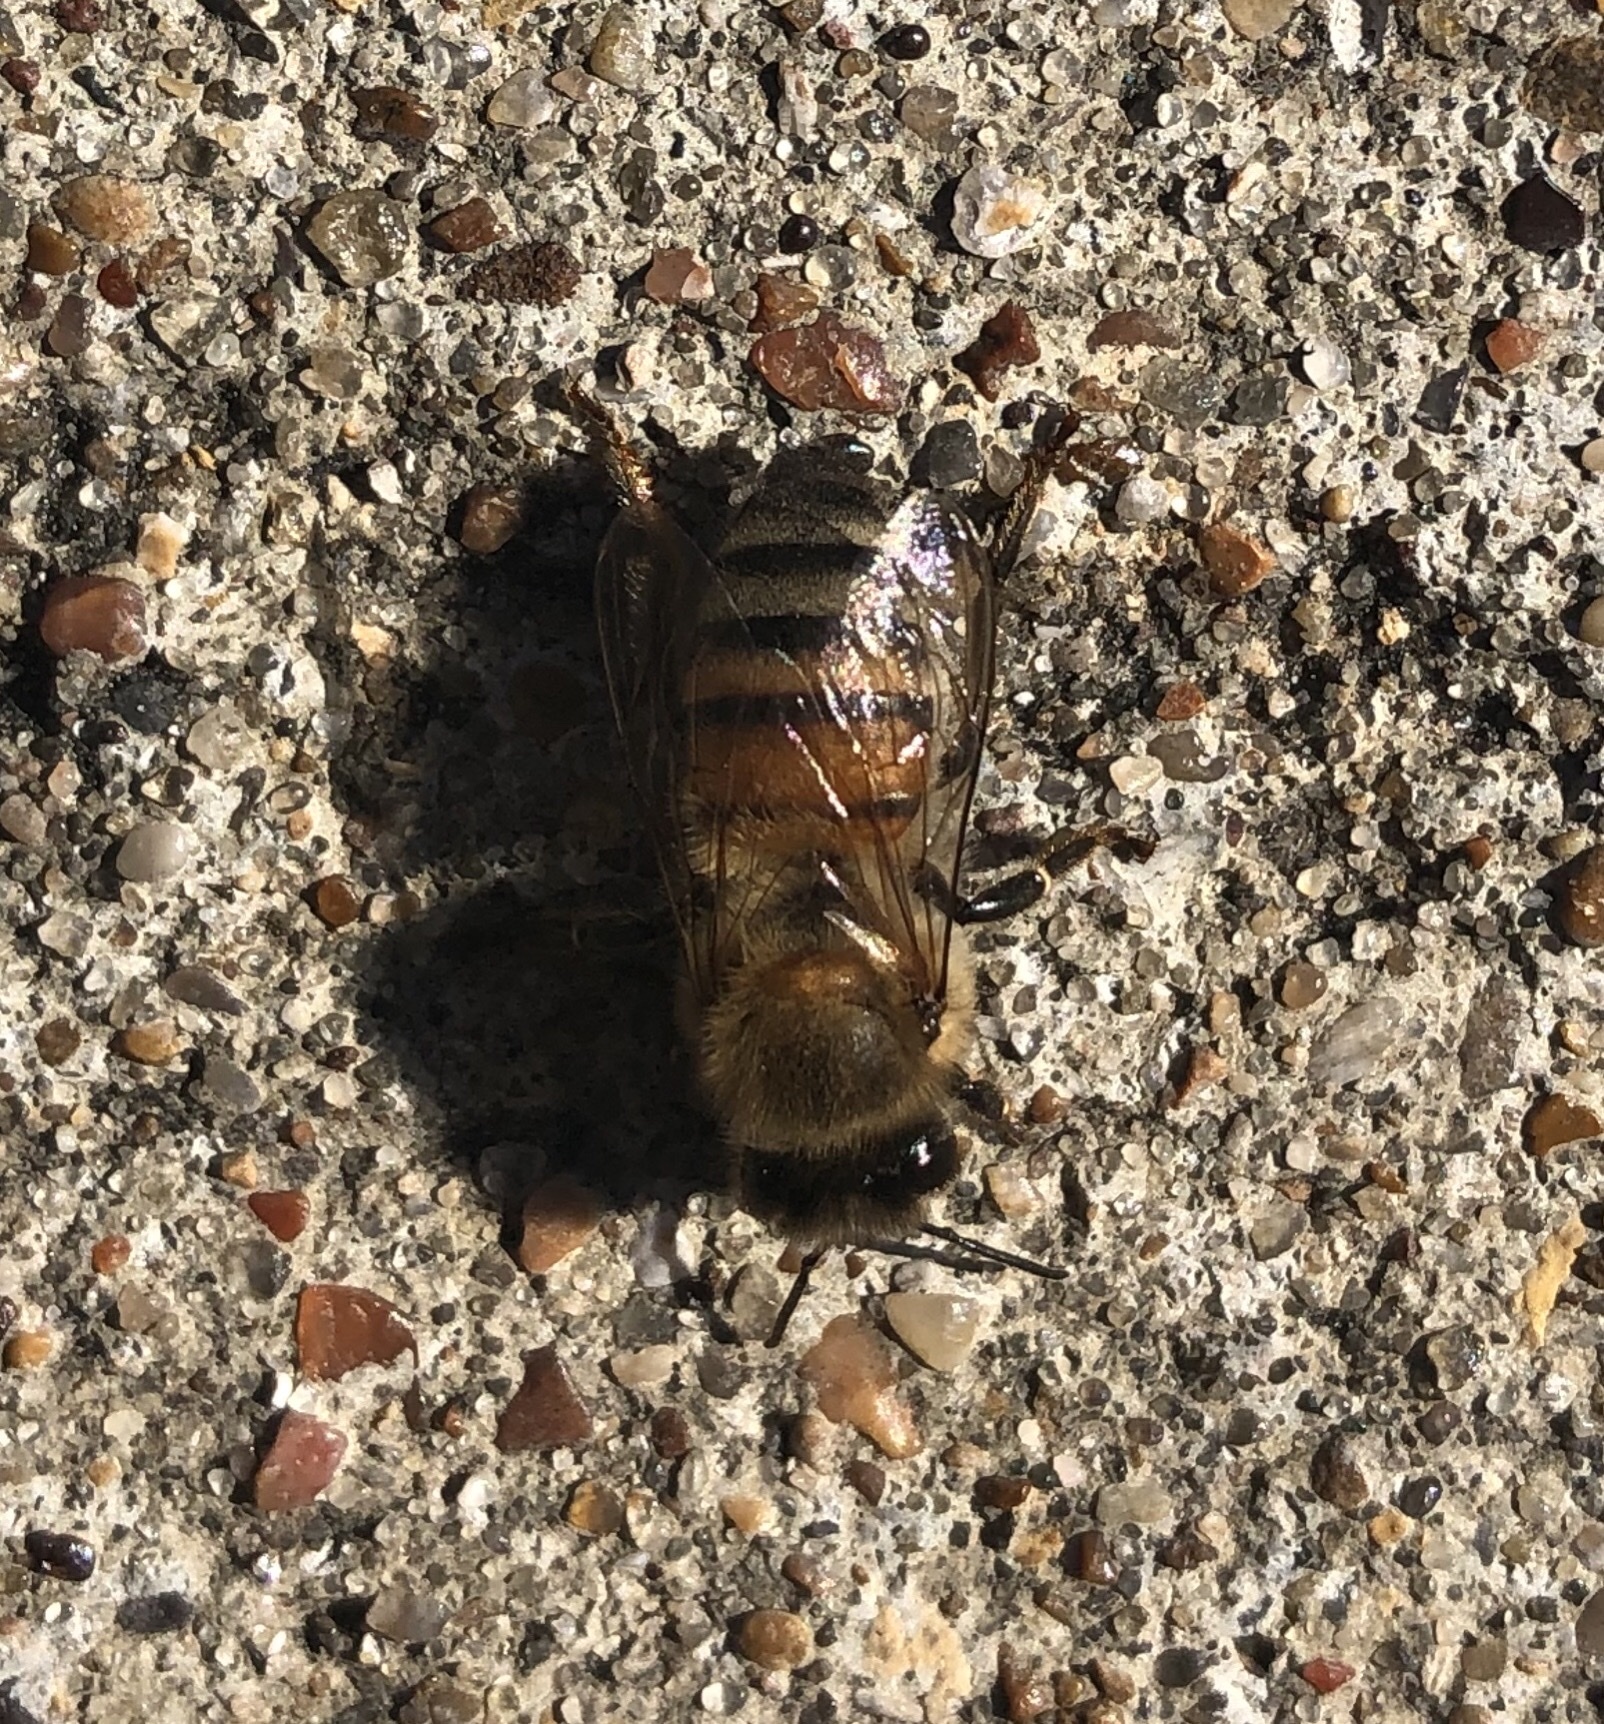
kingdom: Animalia
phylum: Arthropoda
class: Insecta
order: Hymenoptera
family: Apidae
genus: Apis
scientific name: Apis mellifera
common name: Honey bee
